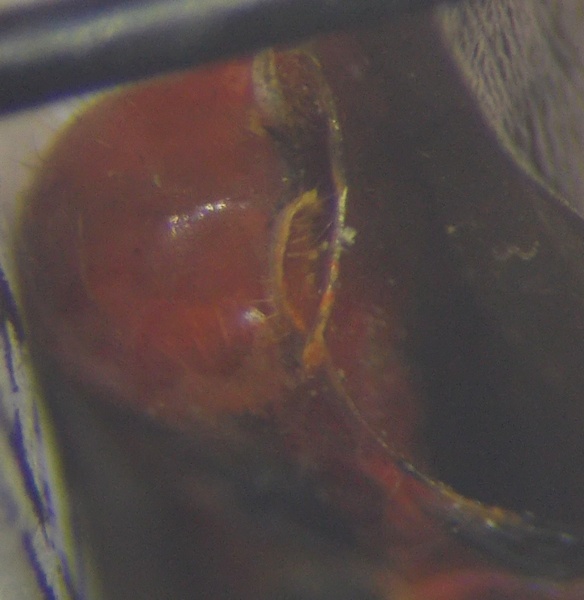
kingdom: Animalia
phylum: Arthropoda
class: Insecta
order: Hemiptera
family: Reduviidae
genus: Rhynocoris
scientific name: Rhynocoris iracundus
